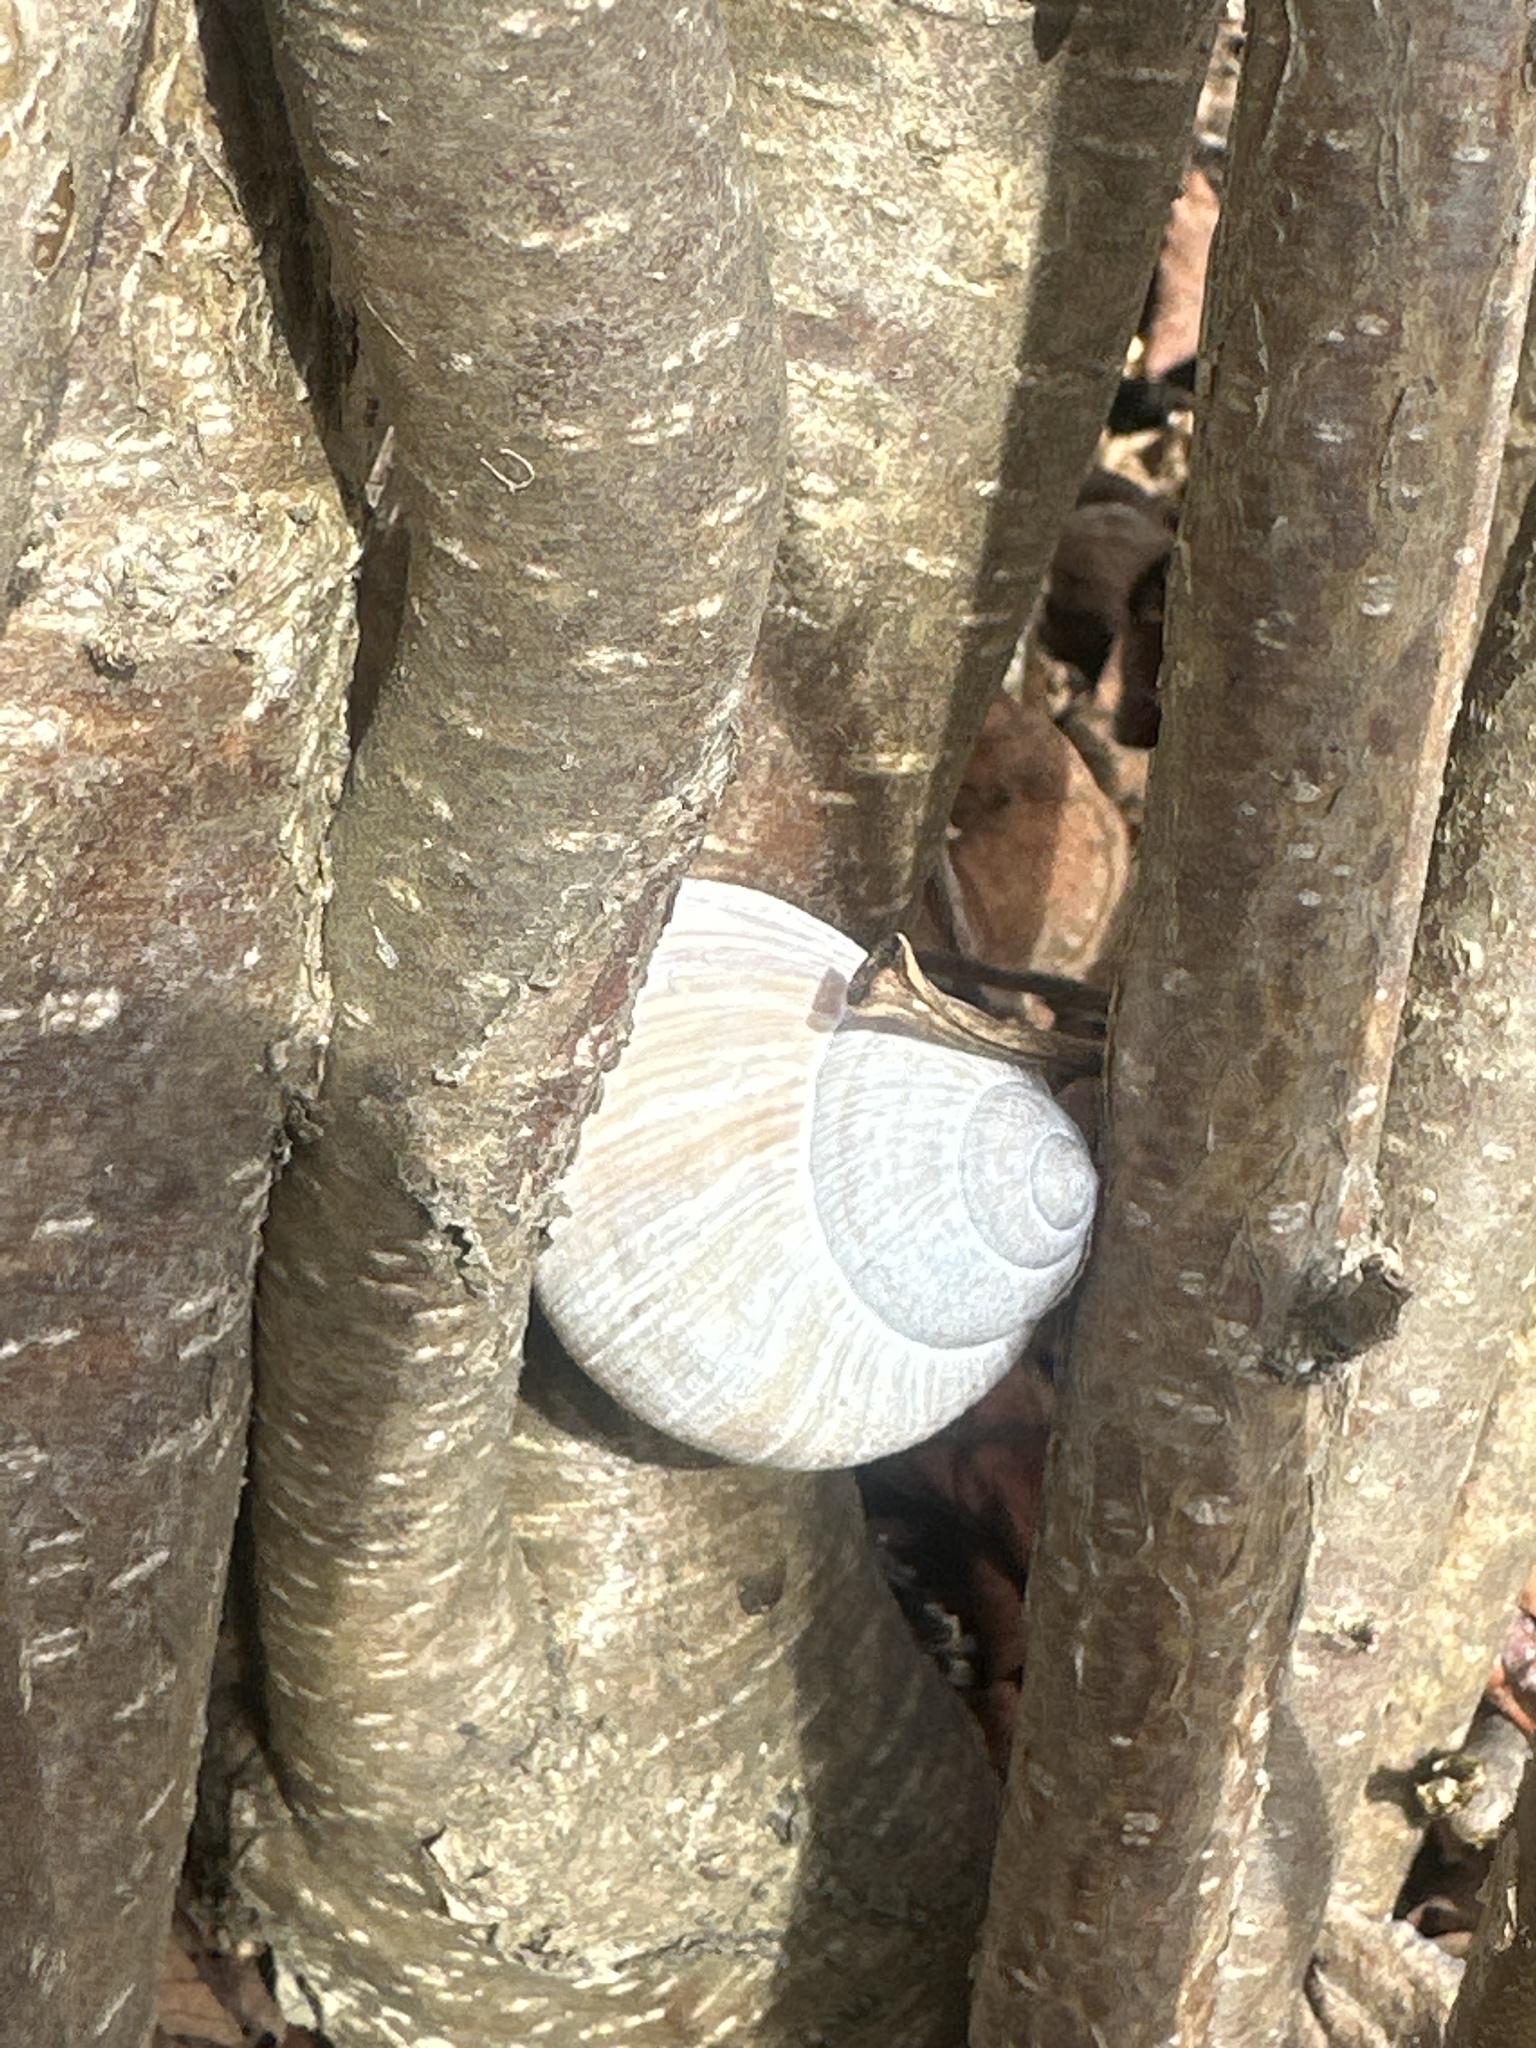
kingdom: Animalia
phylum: Mollusca
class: Gastropoda
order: Stylommatophora
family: Helicidae
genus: Helix
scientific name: Helix pomatia
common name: Roman snail
